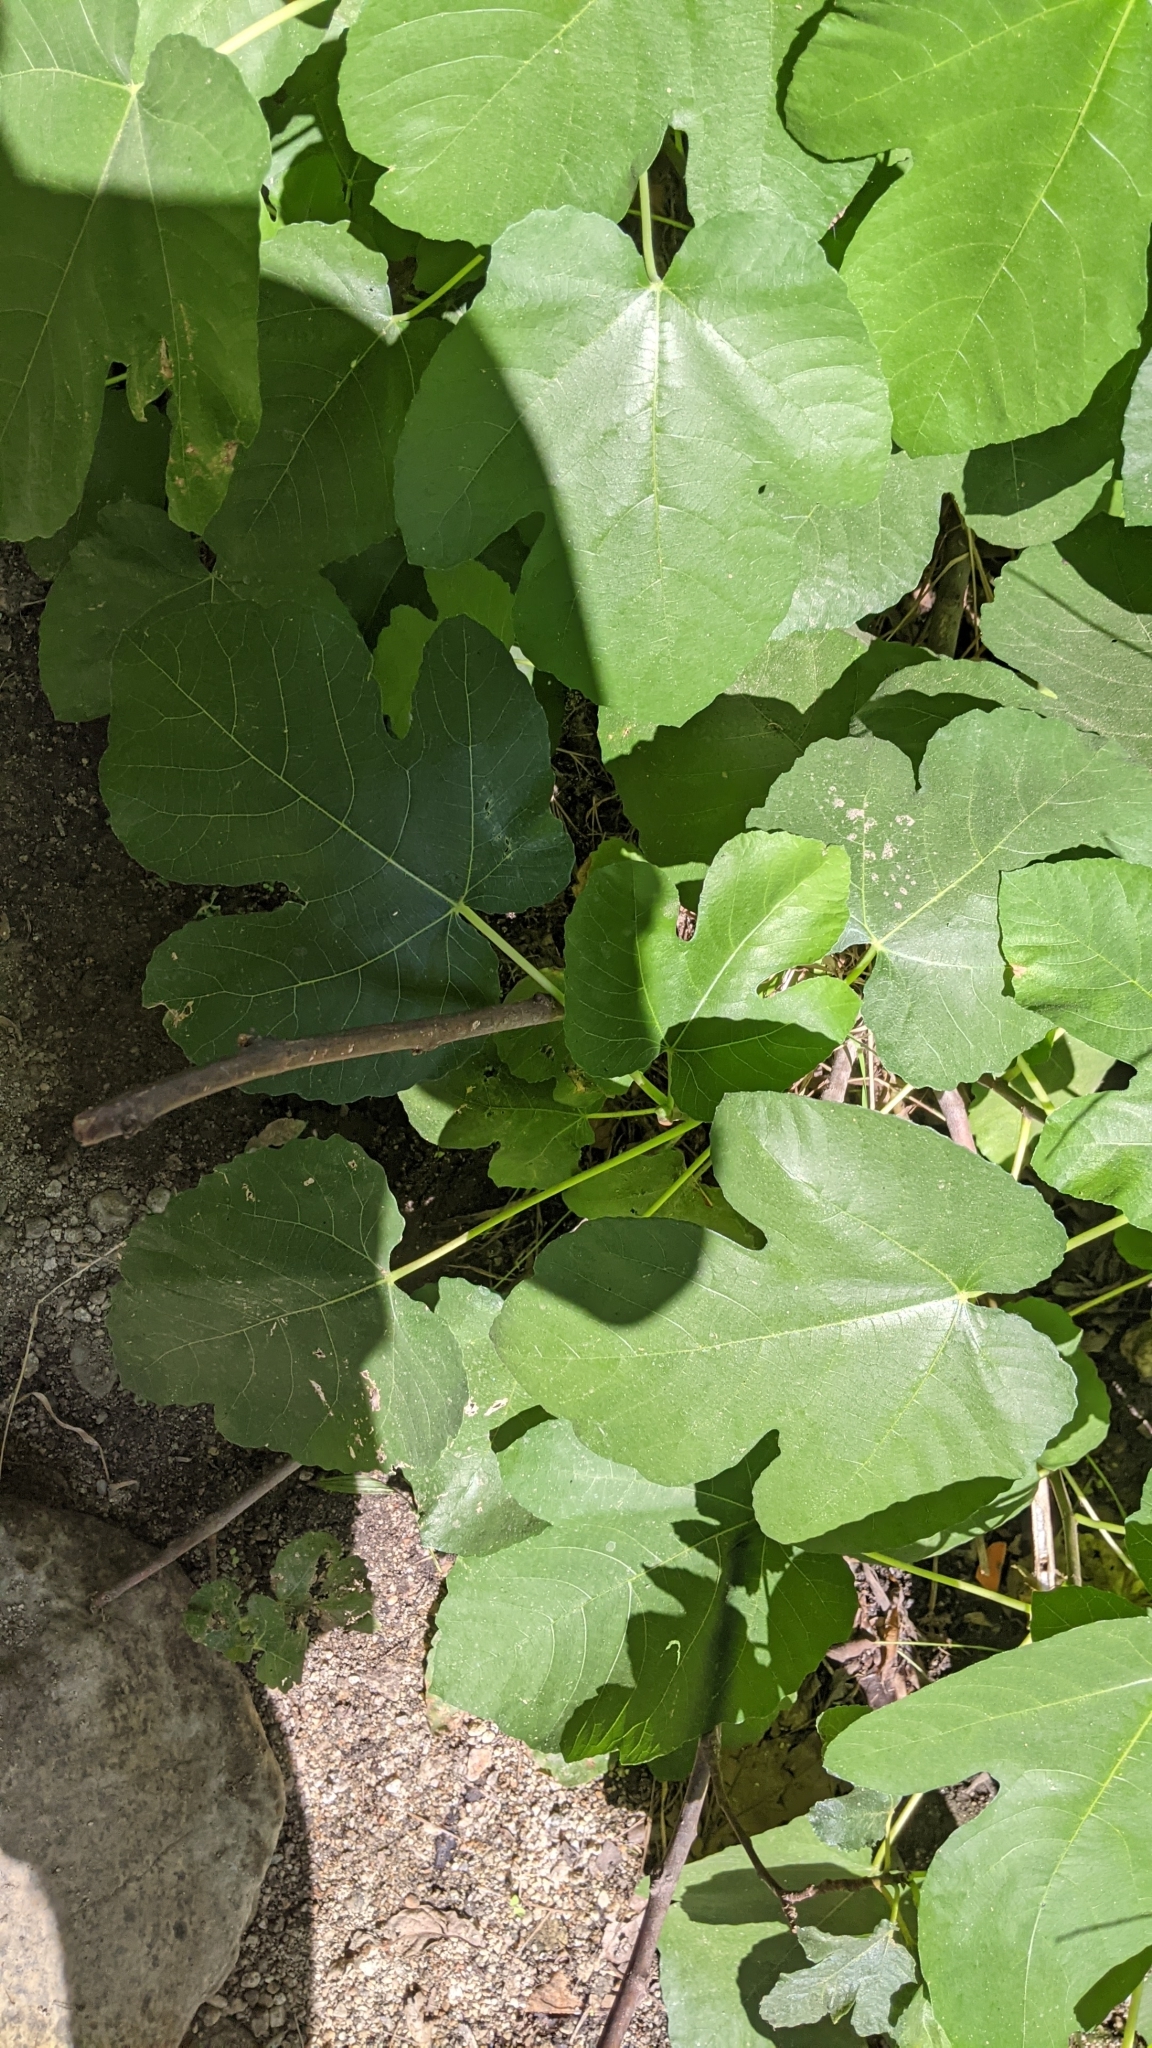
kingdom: Plantae
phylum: Tracheophyta
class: Magnoliopsida
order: Rosales
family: Moraceae
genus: Ficus
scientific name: Ficus carica
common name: Fig
